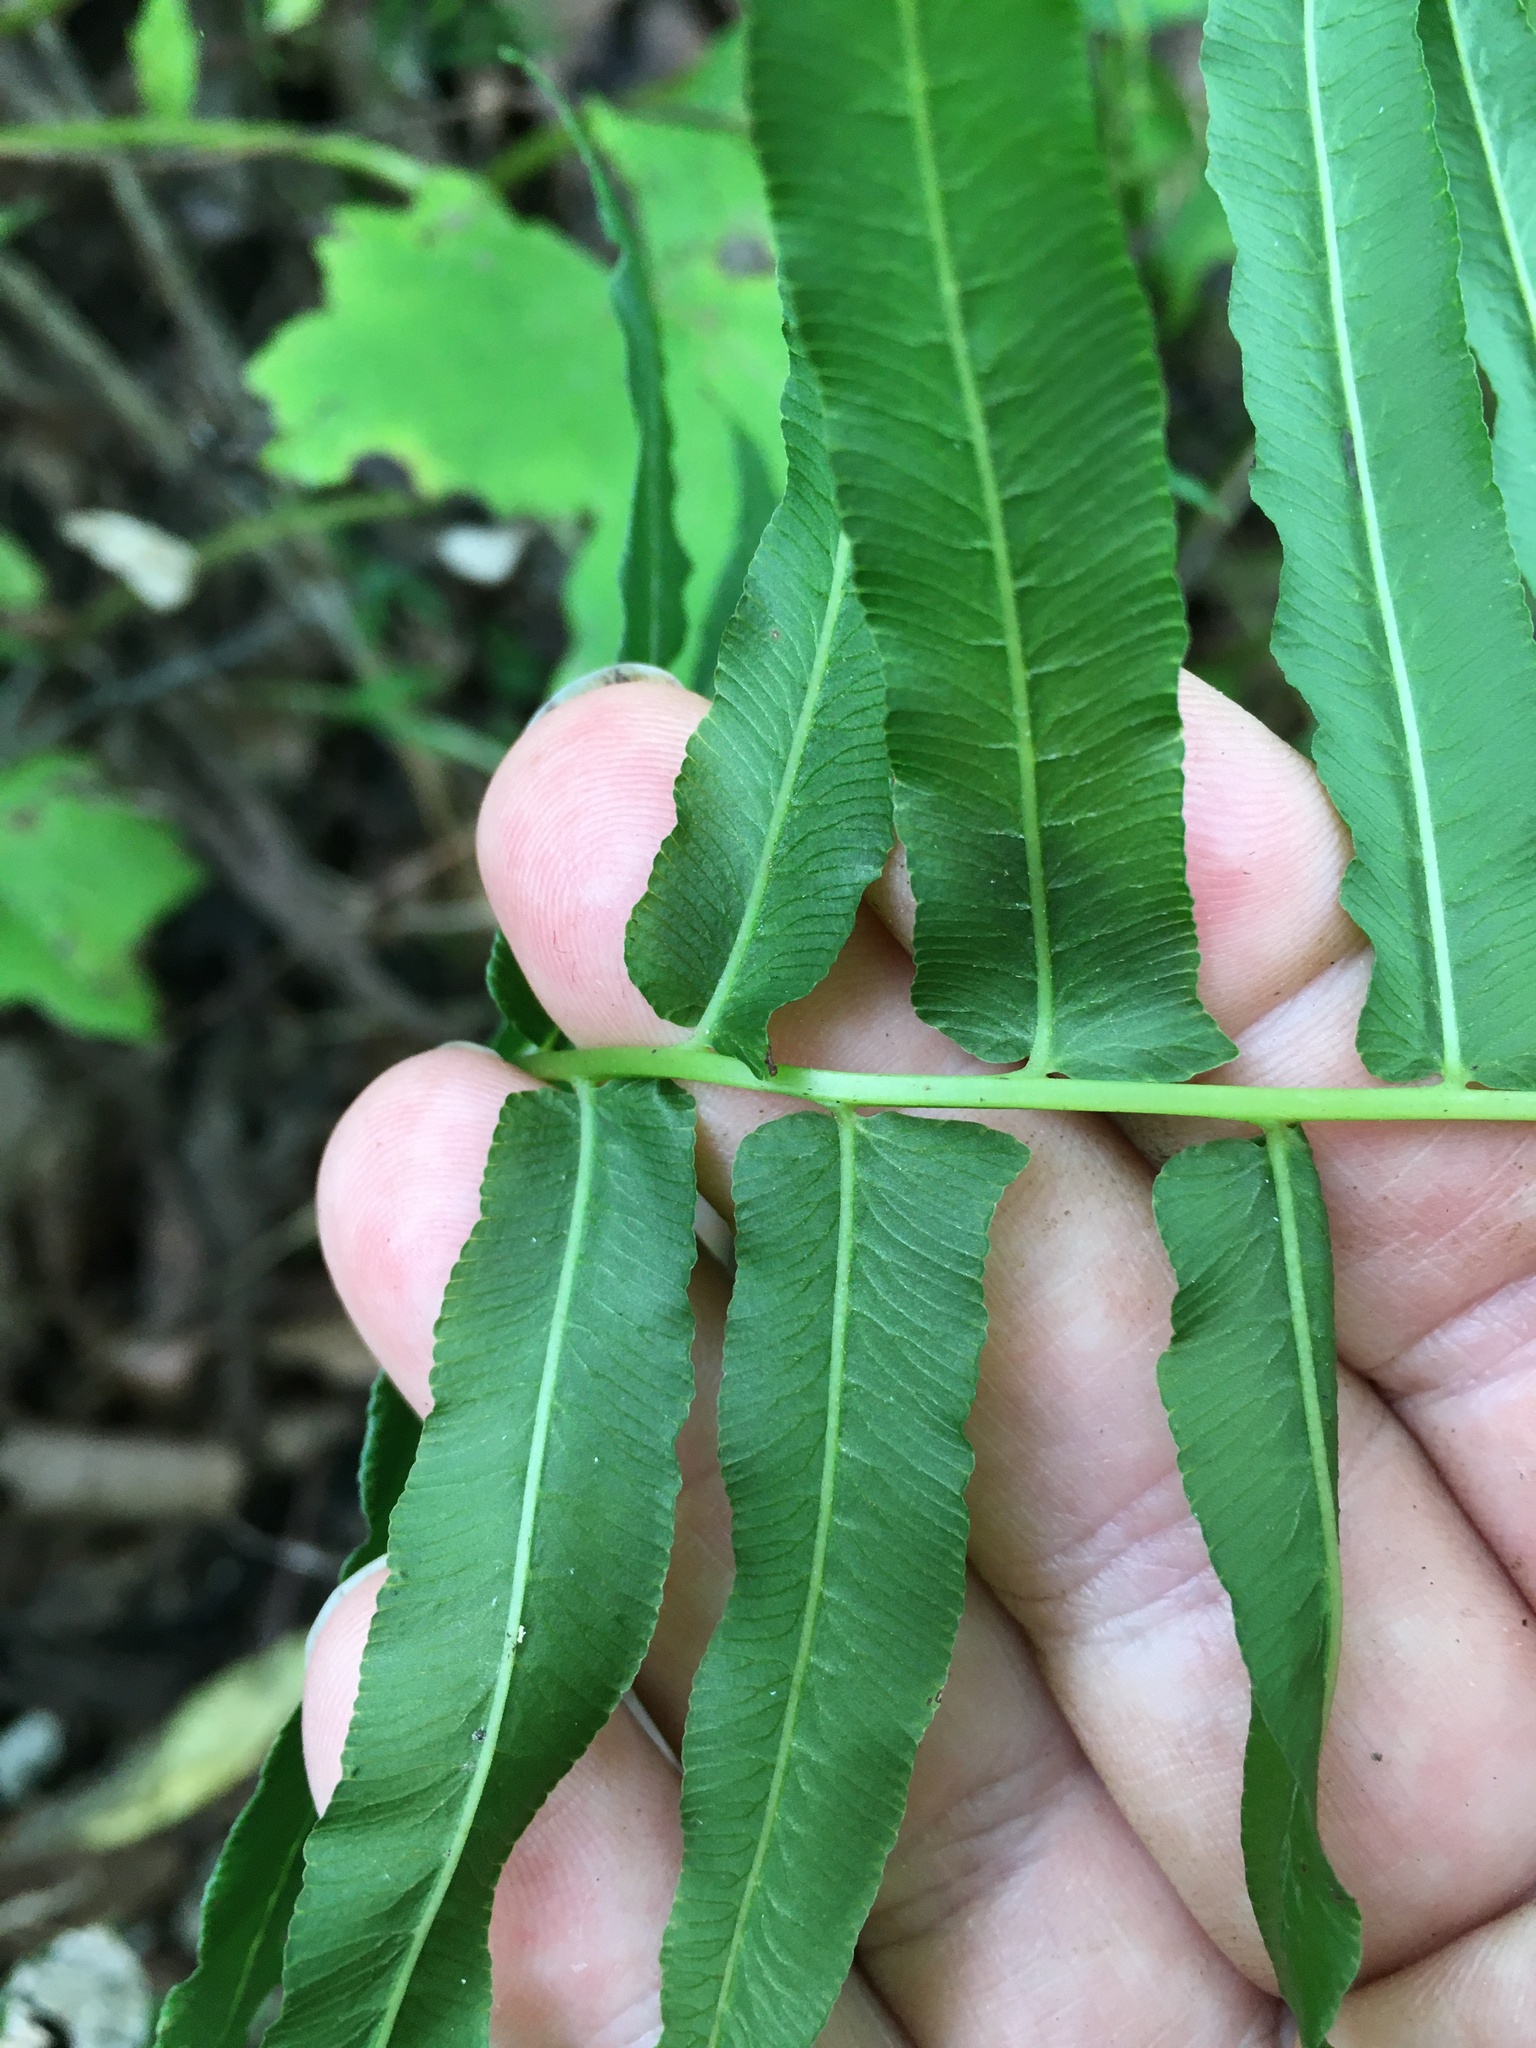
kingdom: Plantae
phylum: Tracheophyta
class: Polypodiopsida
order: Polypodiales
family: Diplaziopsidaceae
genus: Homalosorus
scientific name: Homalosorus pycnocarpos
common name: Glade fern
